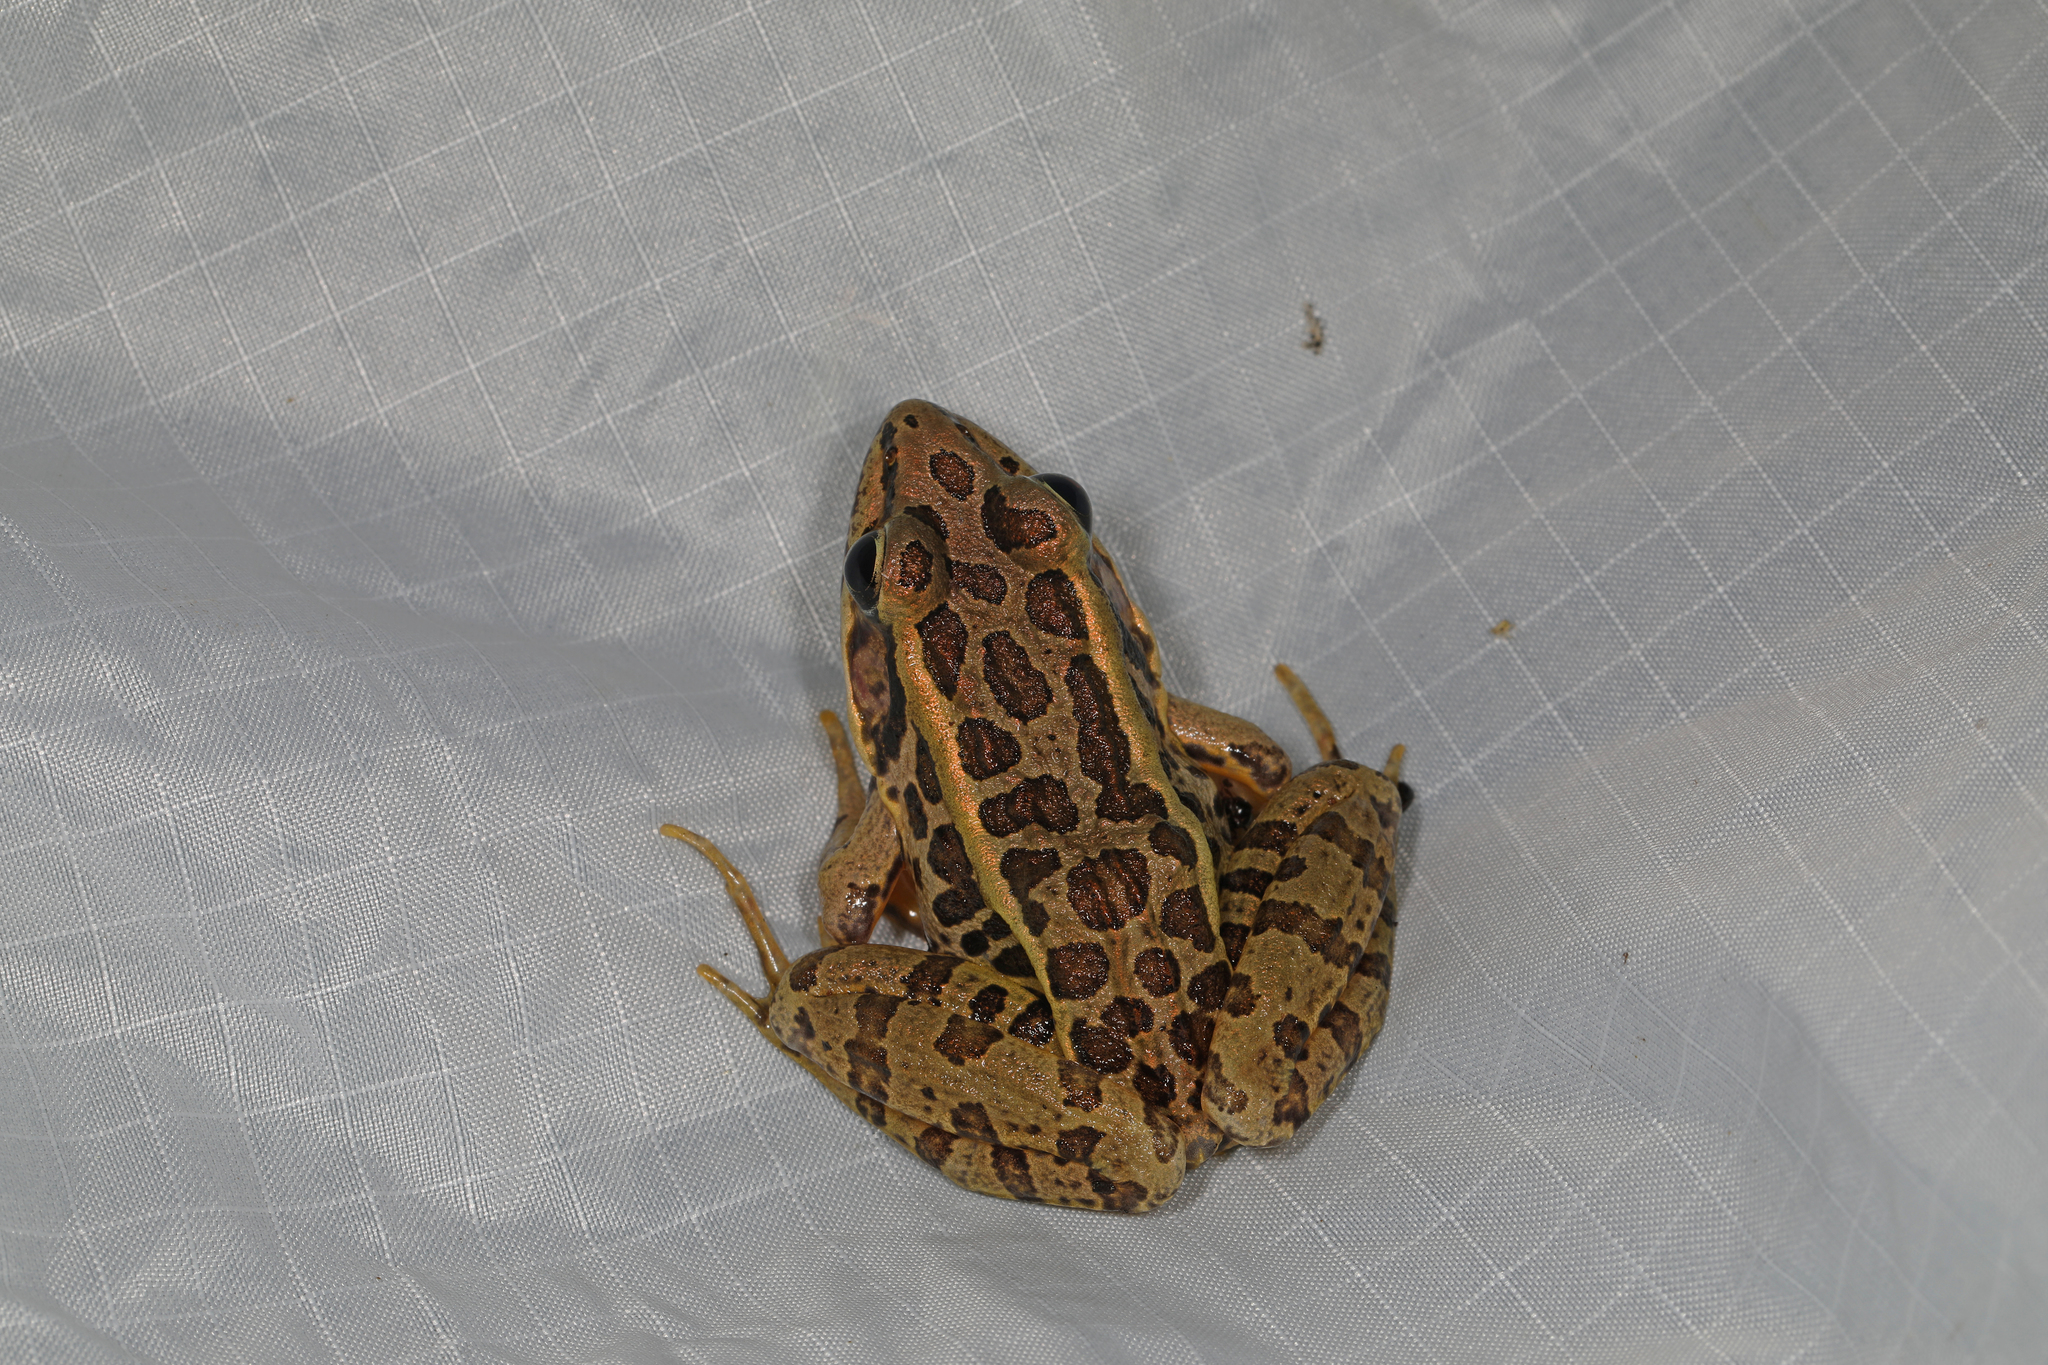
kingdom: Animalia
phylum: Chordata
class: Amphibia
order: Anura
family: Ranidae
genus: Lithobates
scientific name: Lithobates palustris
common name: Pickerel frog
